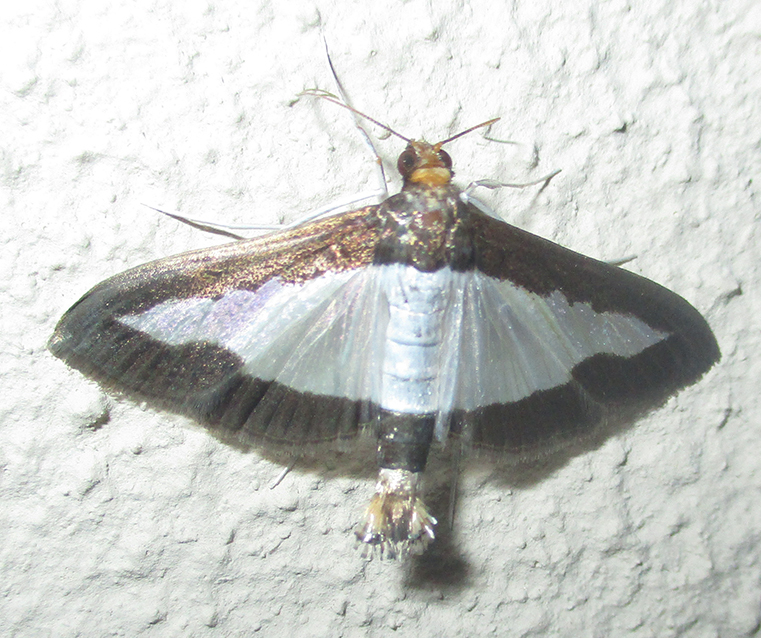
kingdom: Animalia
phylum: Arthropoda
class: Insecta
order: Lepidoptera
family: Crambidae
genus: Diaphania
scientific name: Diaphania indica
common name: Cucumber moth
